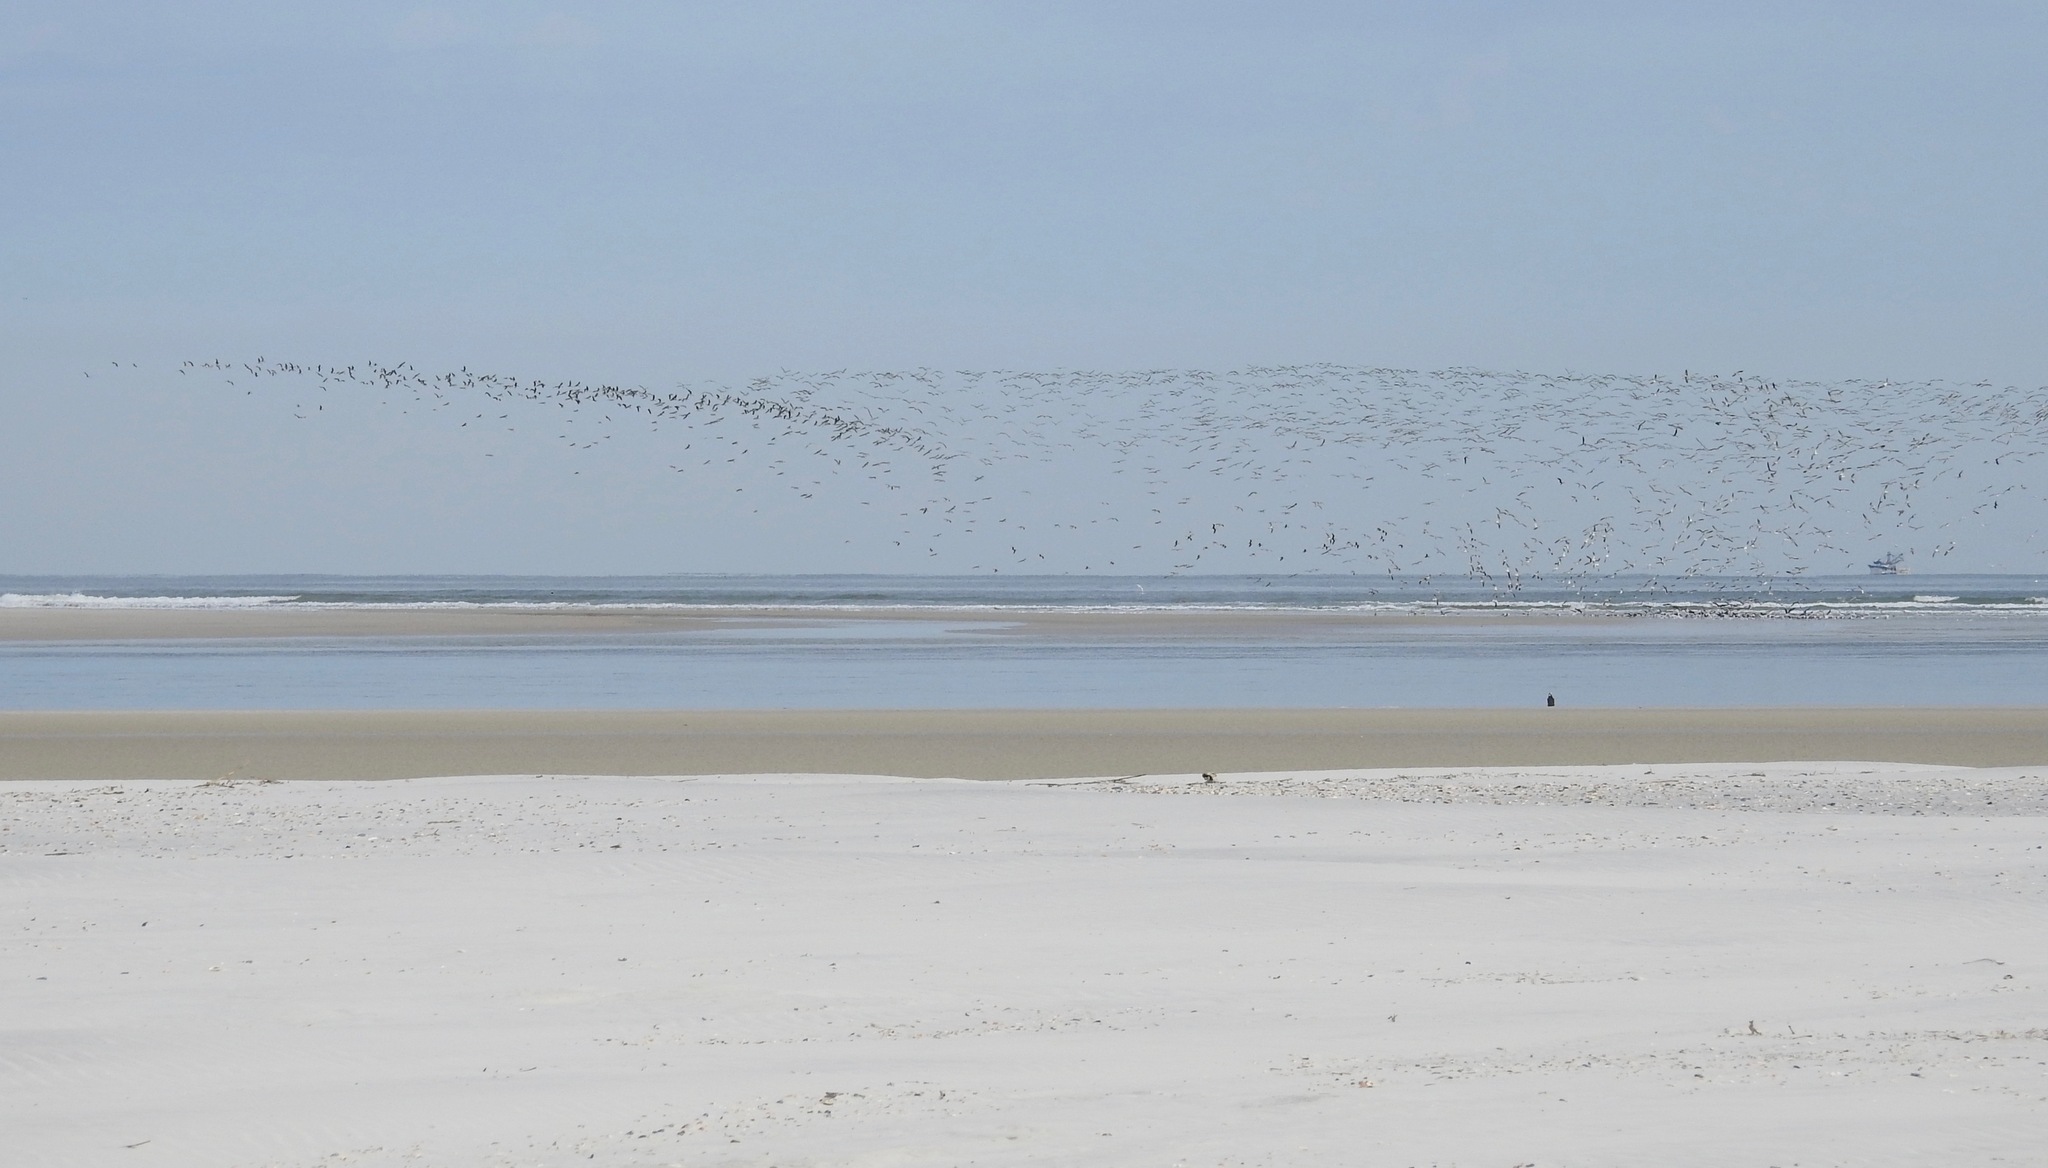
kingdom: Animalia
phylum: Chordata
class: Aves
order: Charadriiformes
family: Laridae
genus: Rynchops
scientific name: Rynchops niger
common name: Black skimmer
